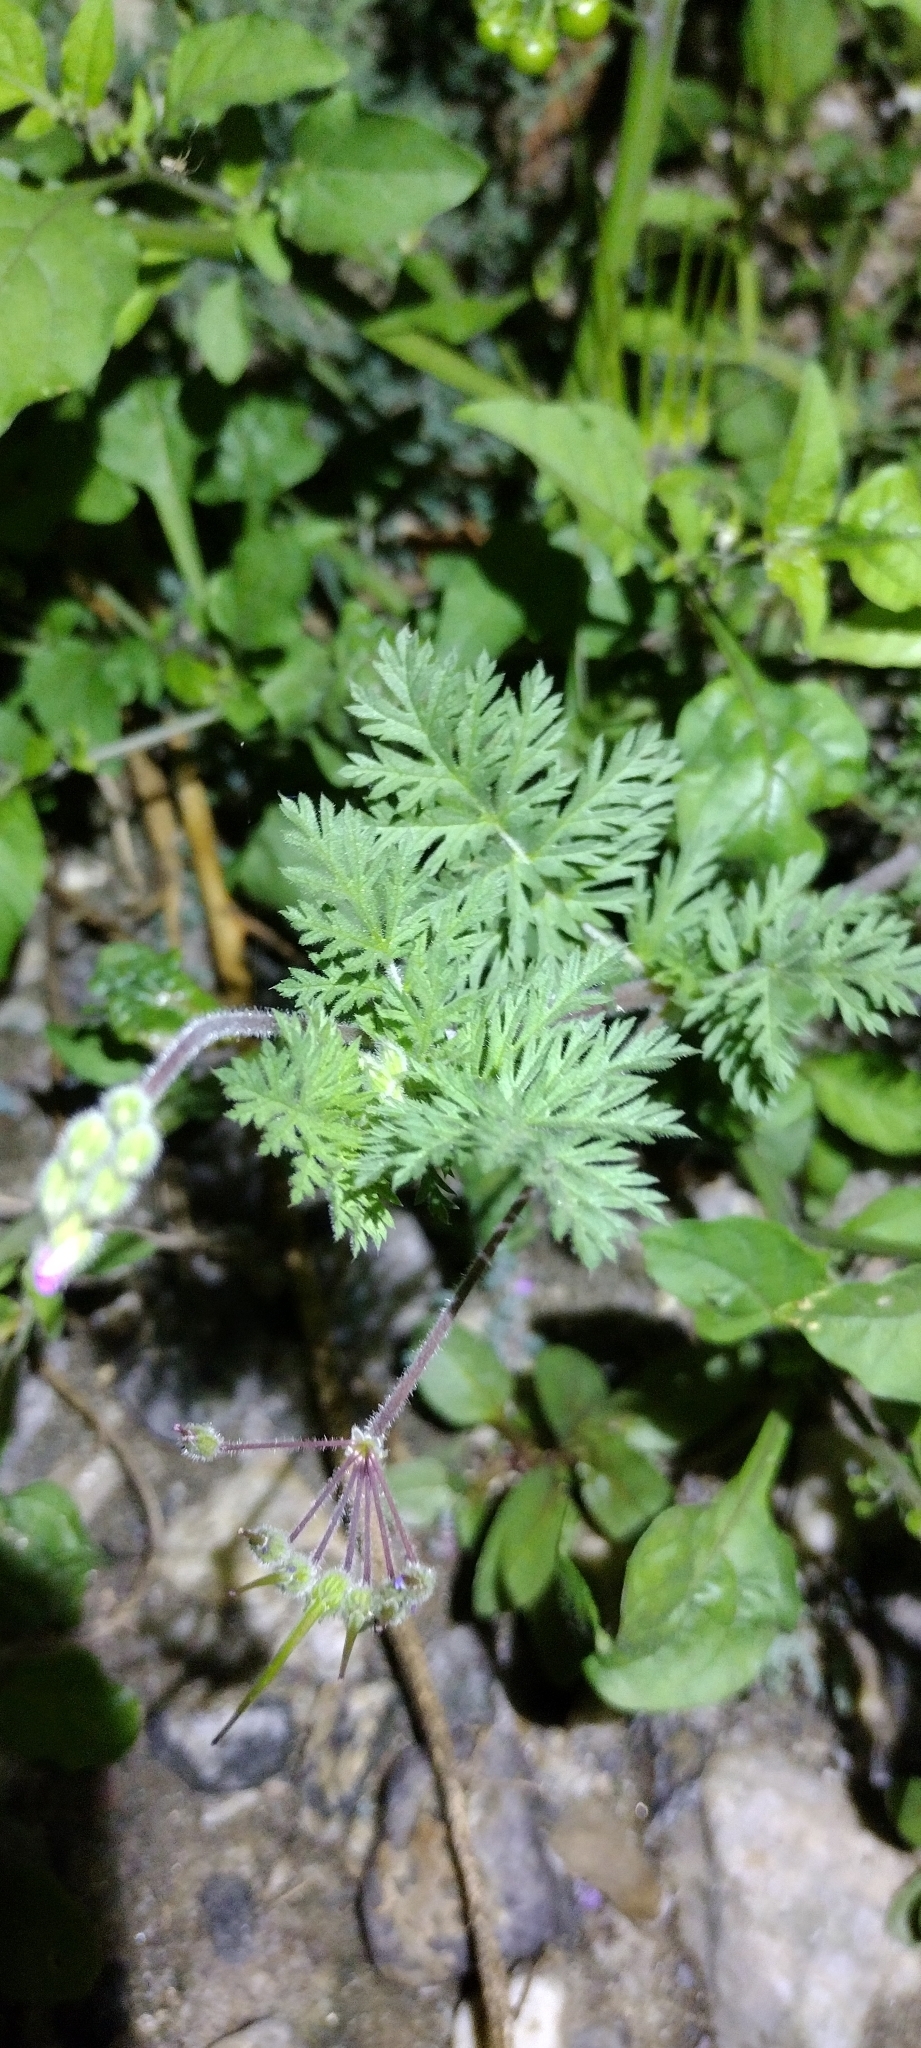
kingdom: Plantae
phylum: Tracheophyta
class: Magnoliopsida
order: Geraniales
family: Geraniaceae
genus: Erodium
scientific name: Erodium cicutarium
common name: Common stork's-bill
